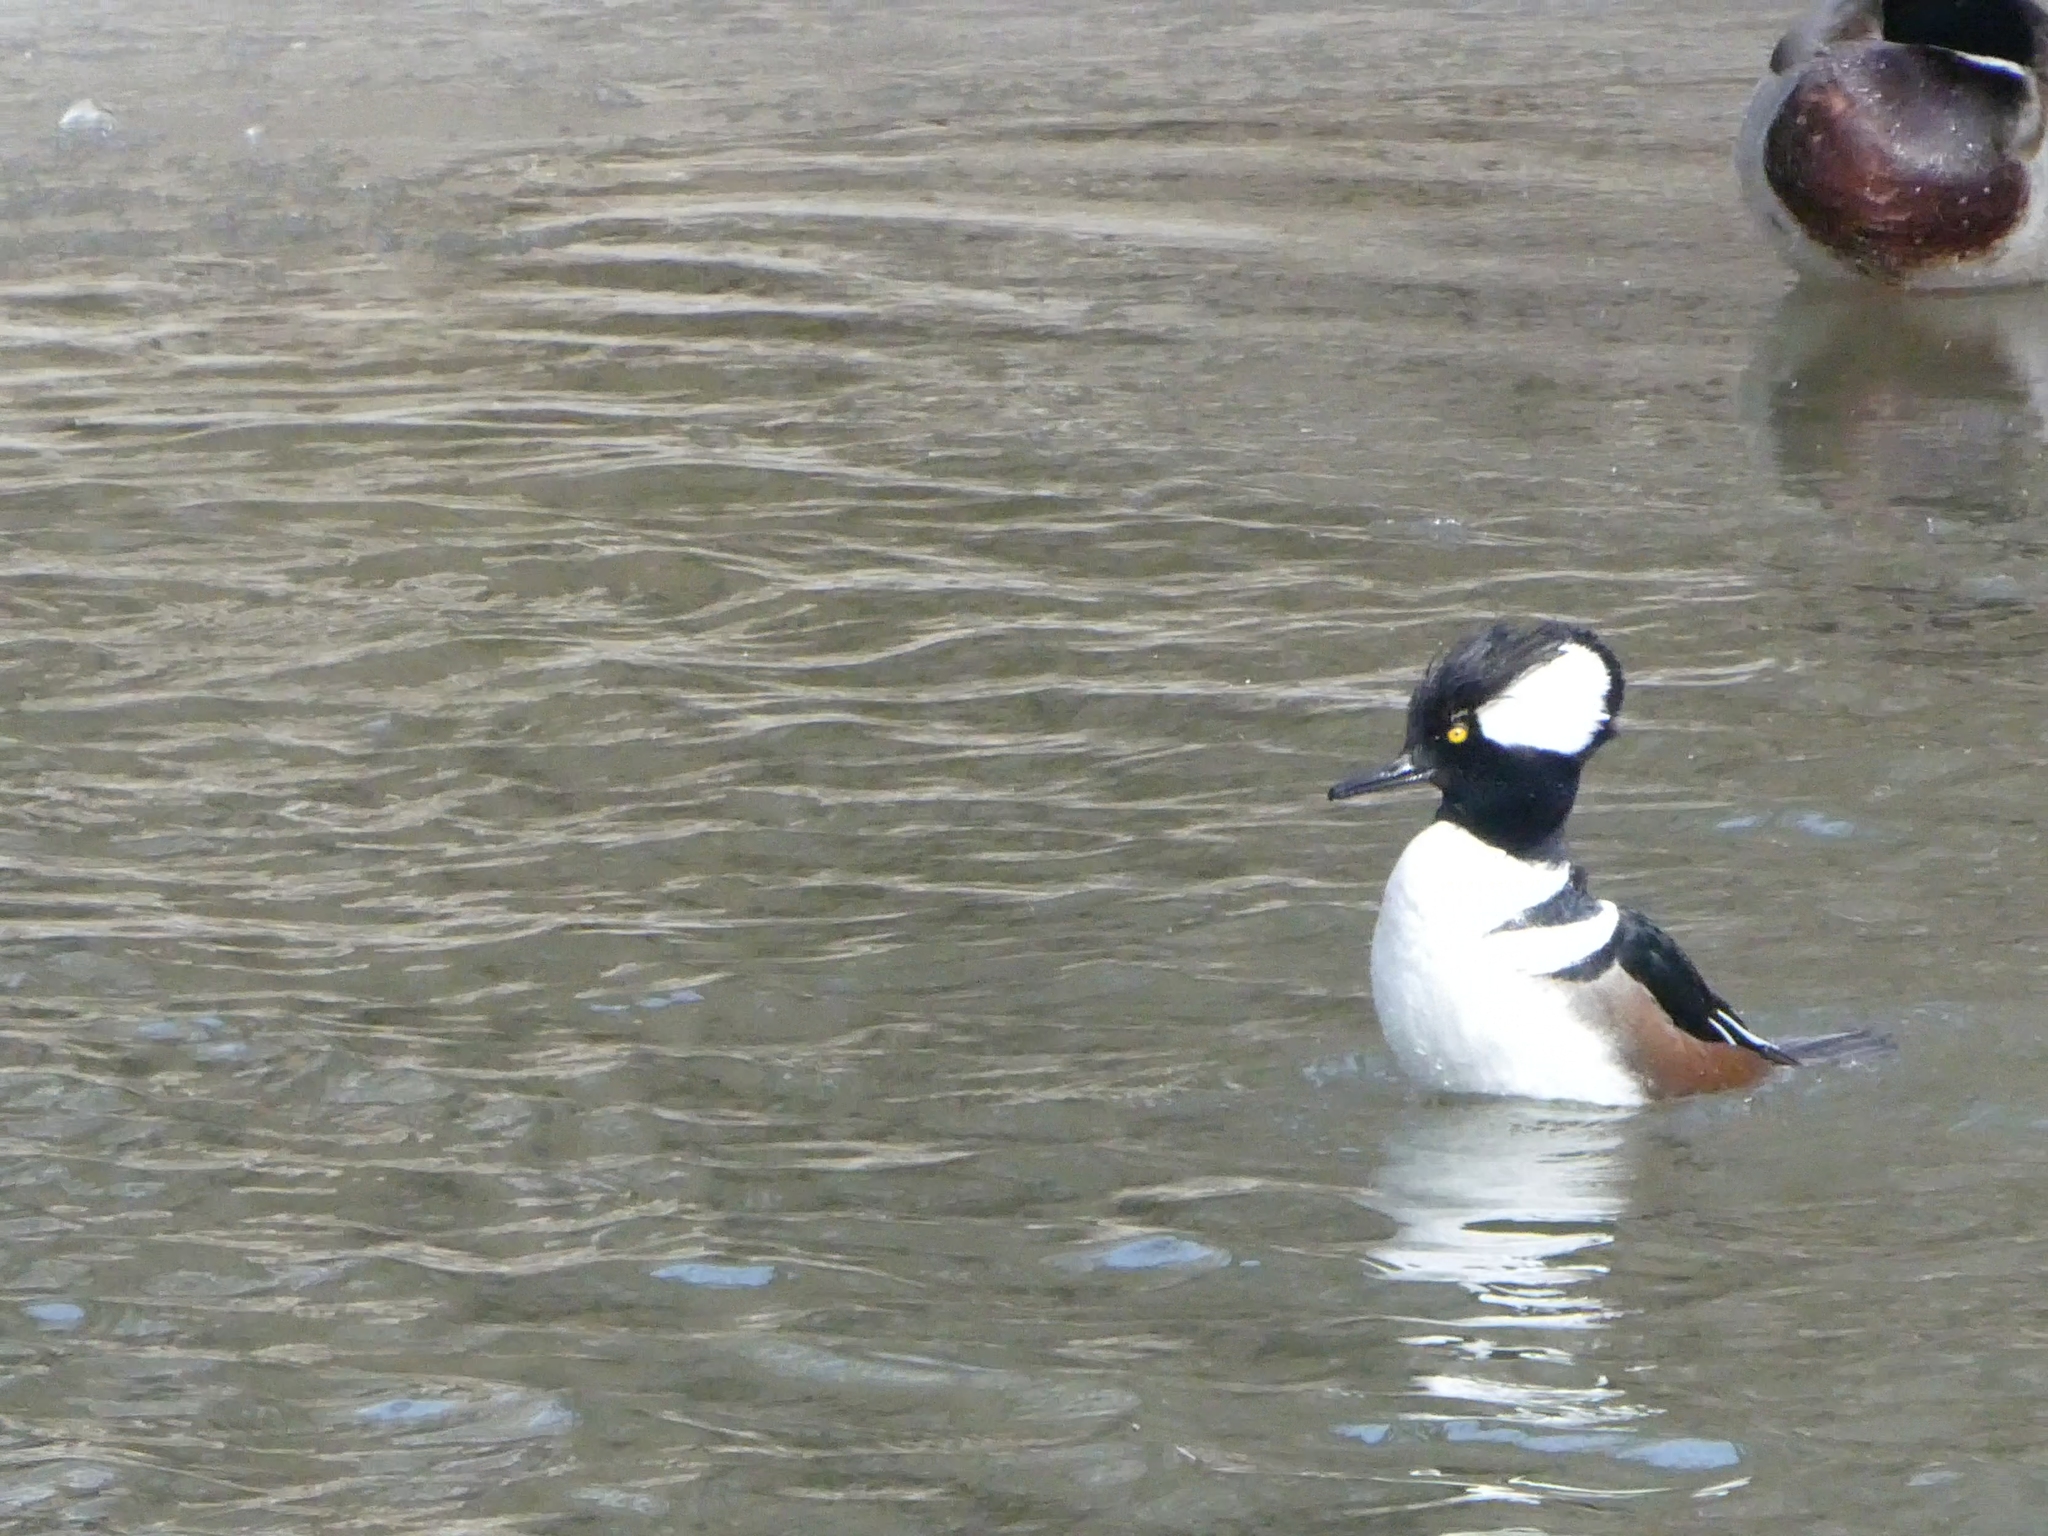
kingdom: Animalia
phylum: Chordata
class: Aves
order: Anseriformes
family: Anatidae
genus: Lophodytes
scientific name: Lophodytes cucullatus
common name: Hooded merganser
